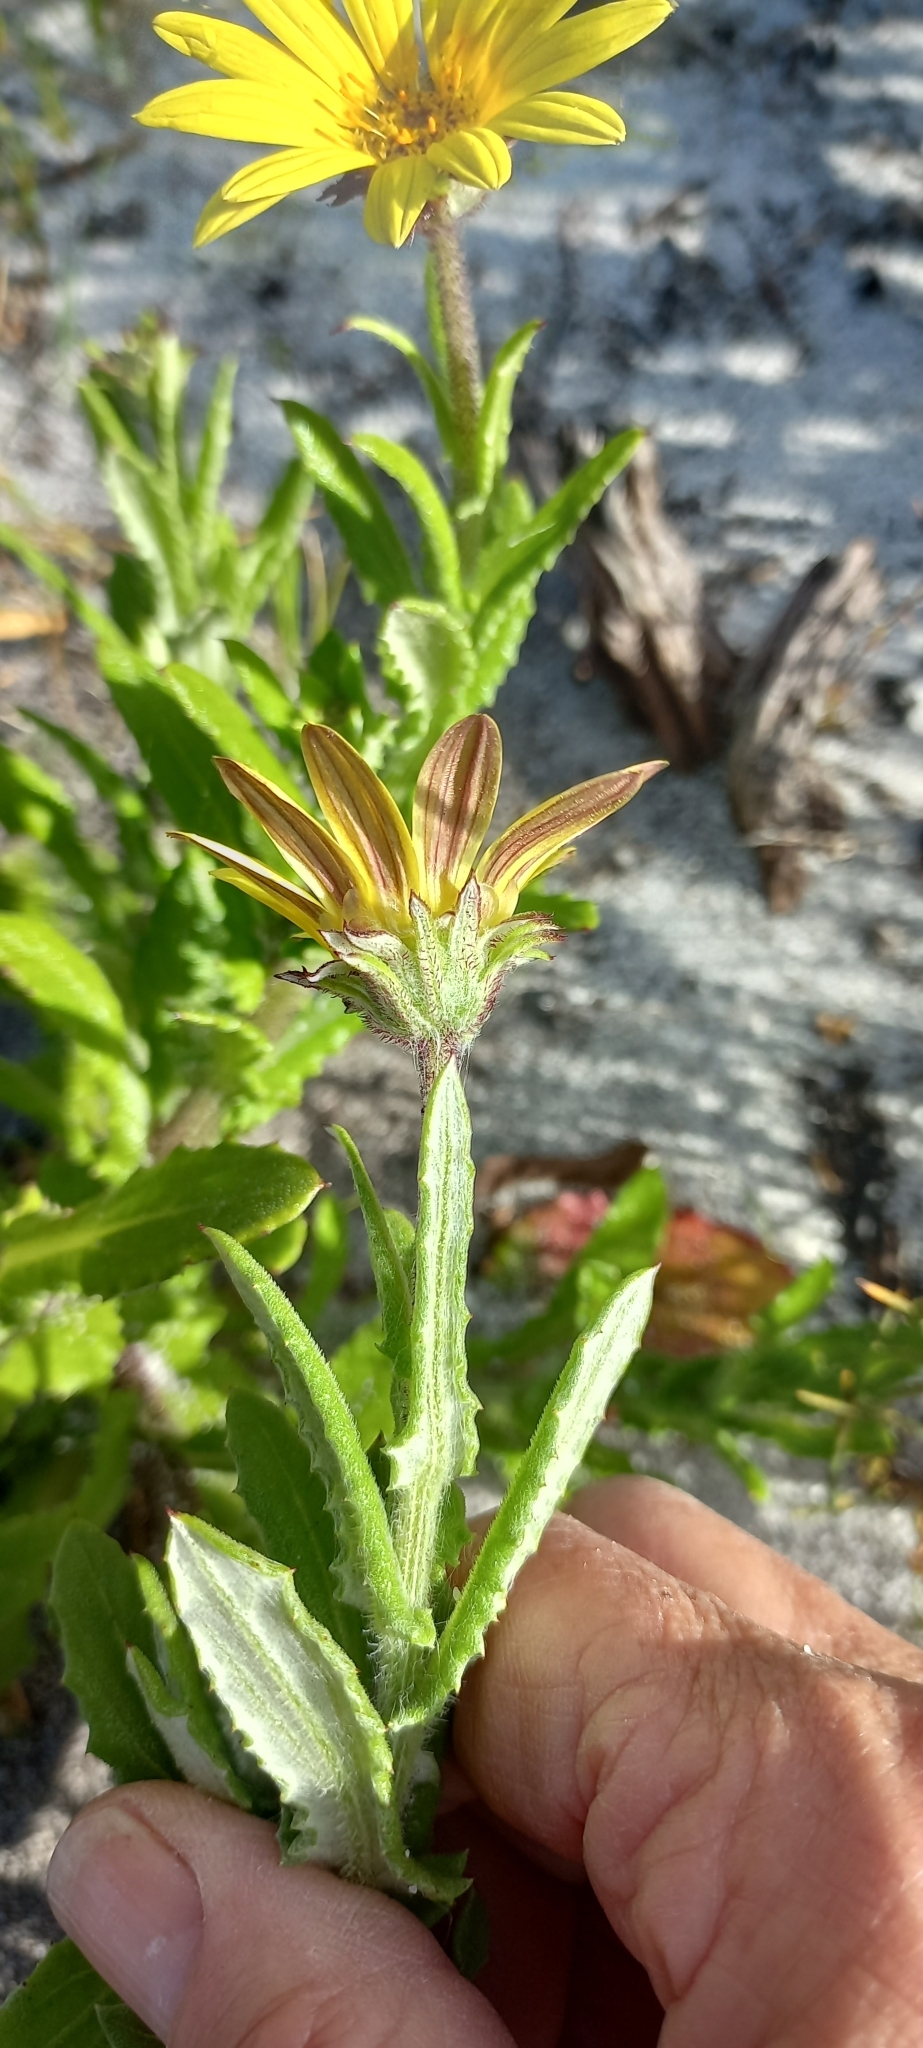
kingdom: Plantae
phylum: Tracheophyta
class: Magnoliopsida
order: Asterales
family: Asteraceae
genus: Arctotis
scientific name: Arctotis scabra
